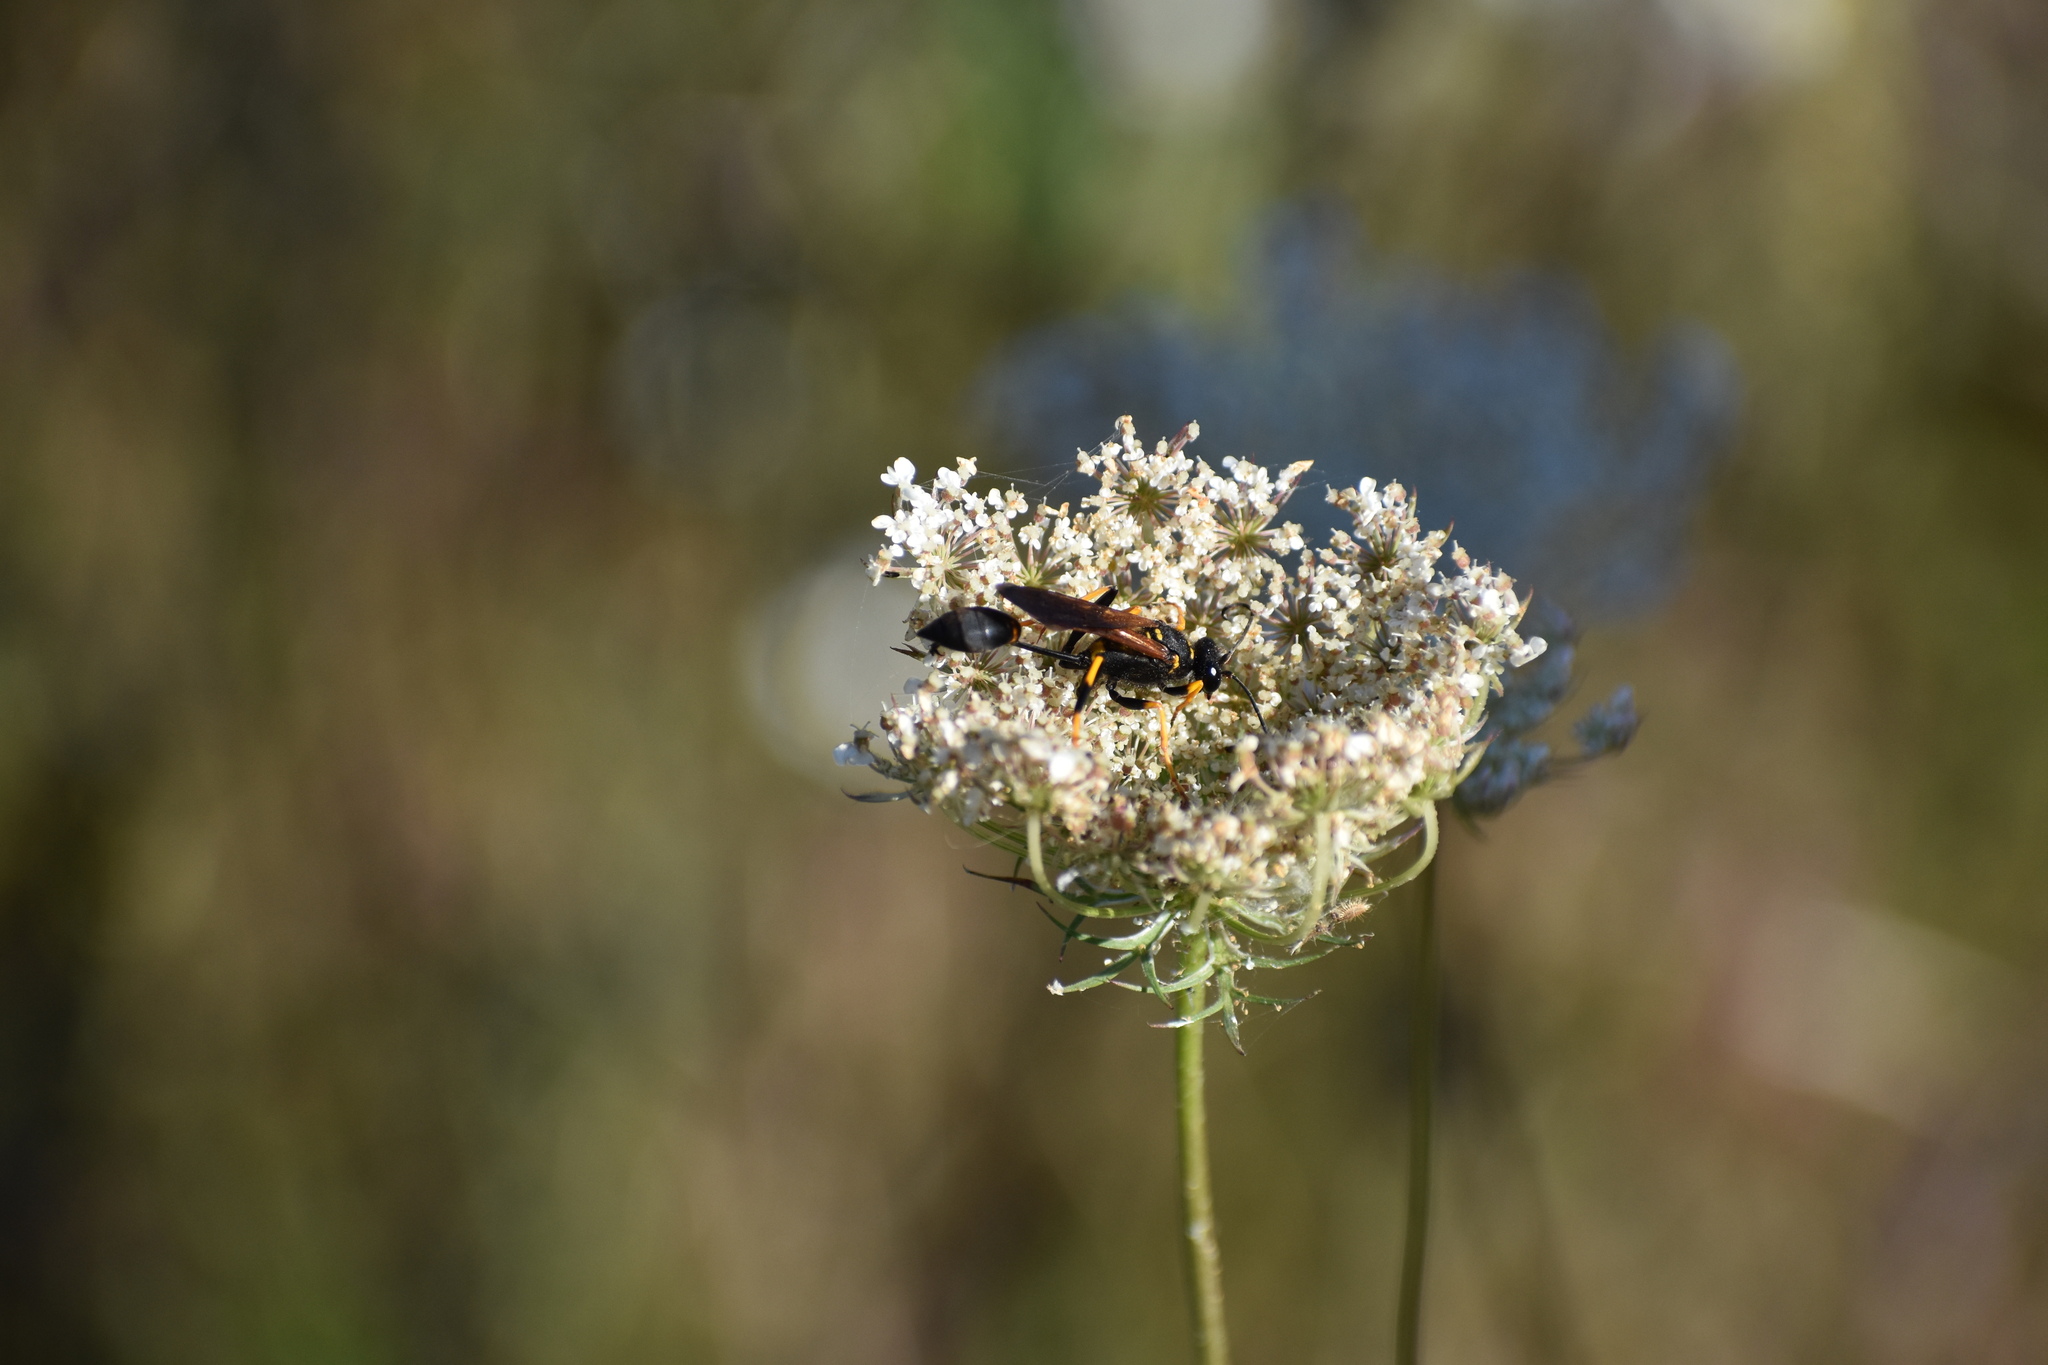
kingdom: Animalia
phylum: Arthropoda
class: Insecta
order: Hymenoptera
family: Sphecidae
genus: Sceliphron
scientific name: Sceliphron caementarium
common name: Mud dauber
